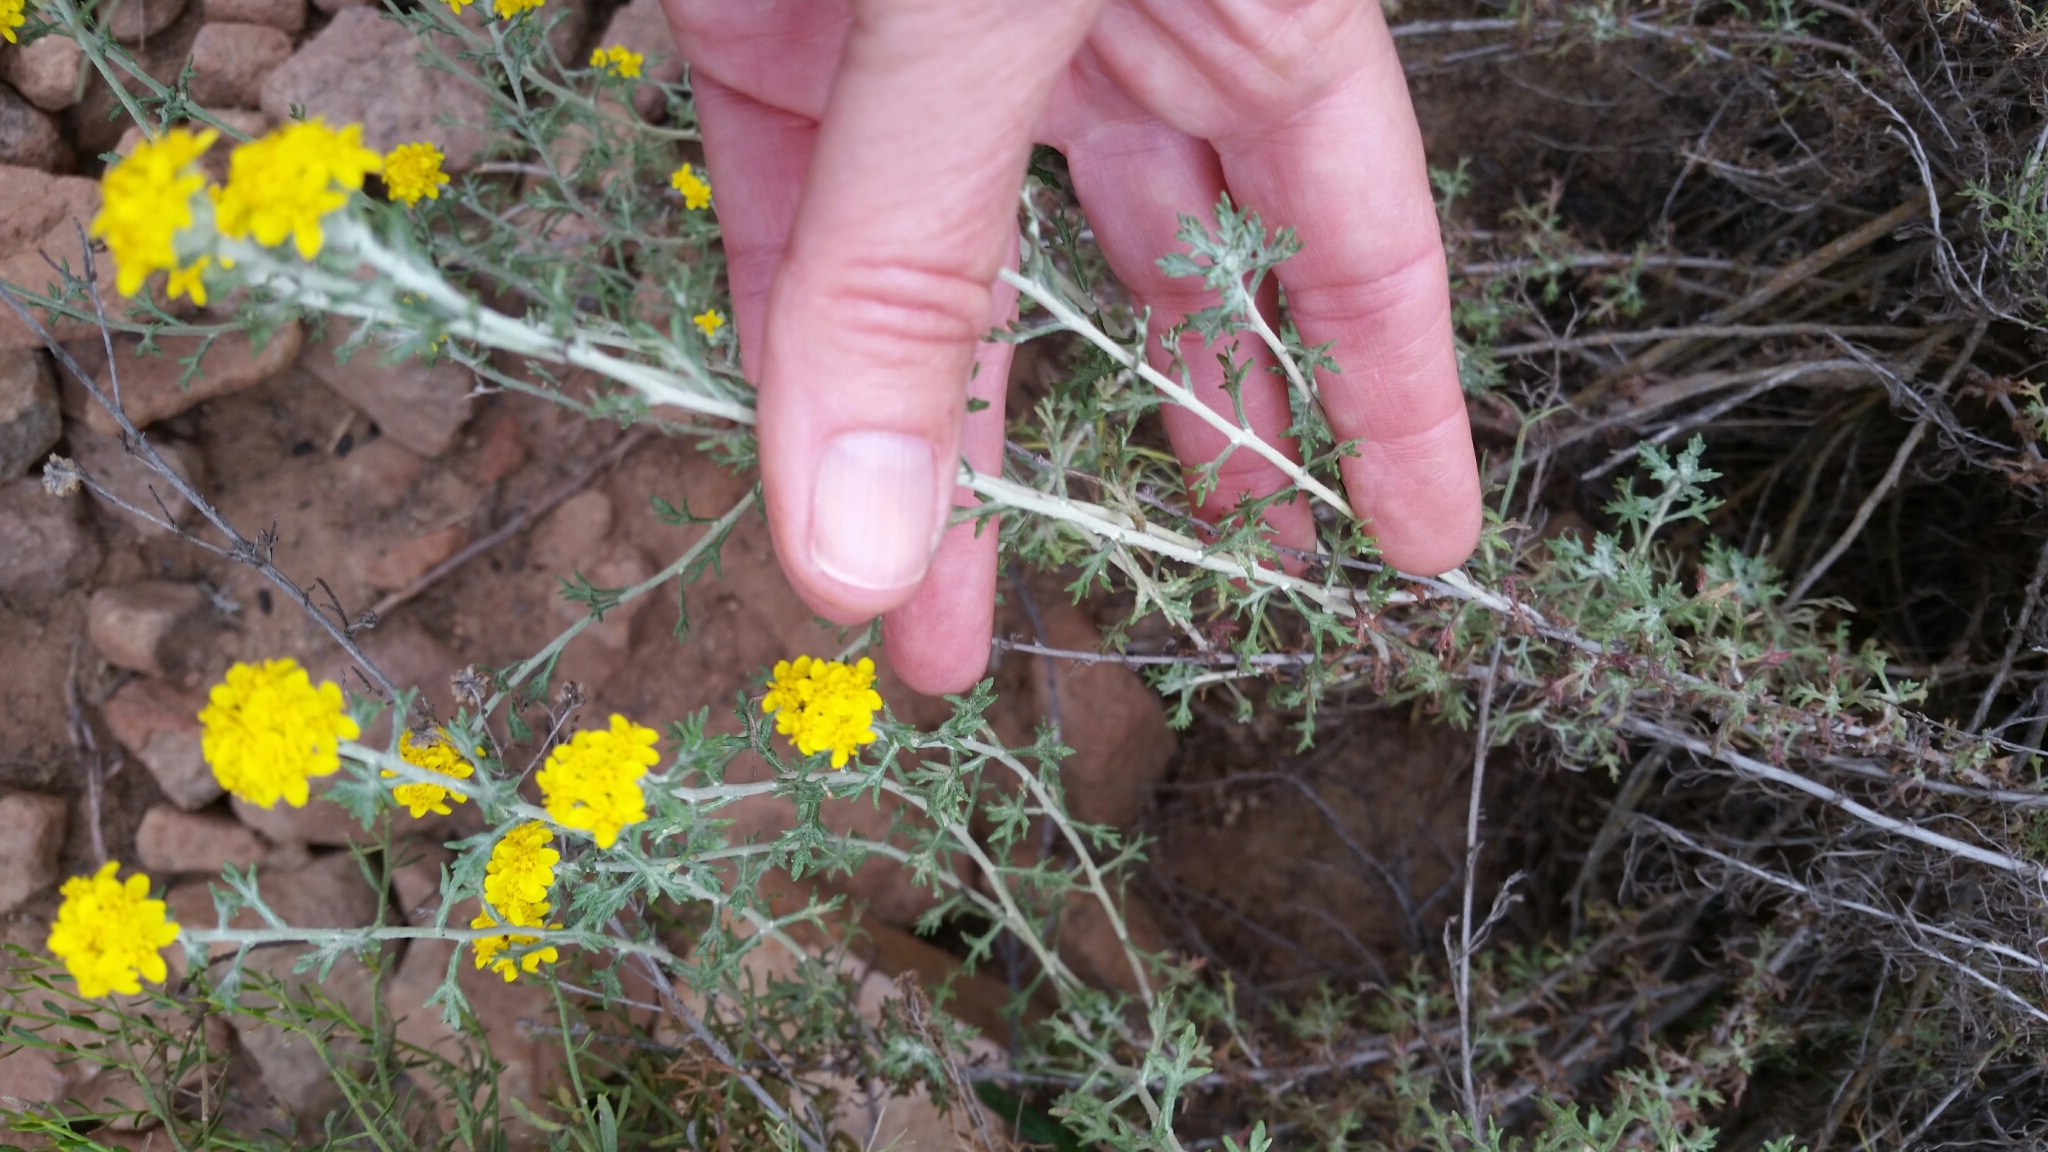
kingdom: Plantae
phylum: Tracheophyta
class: Magnoliopsida
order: Asterales
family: Asteraceae
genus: Eriophyllum
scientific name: Eriophyllum confertiflorum
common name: Golden-yarrow
